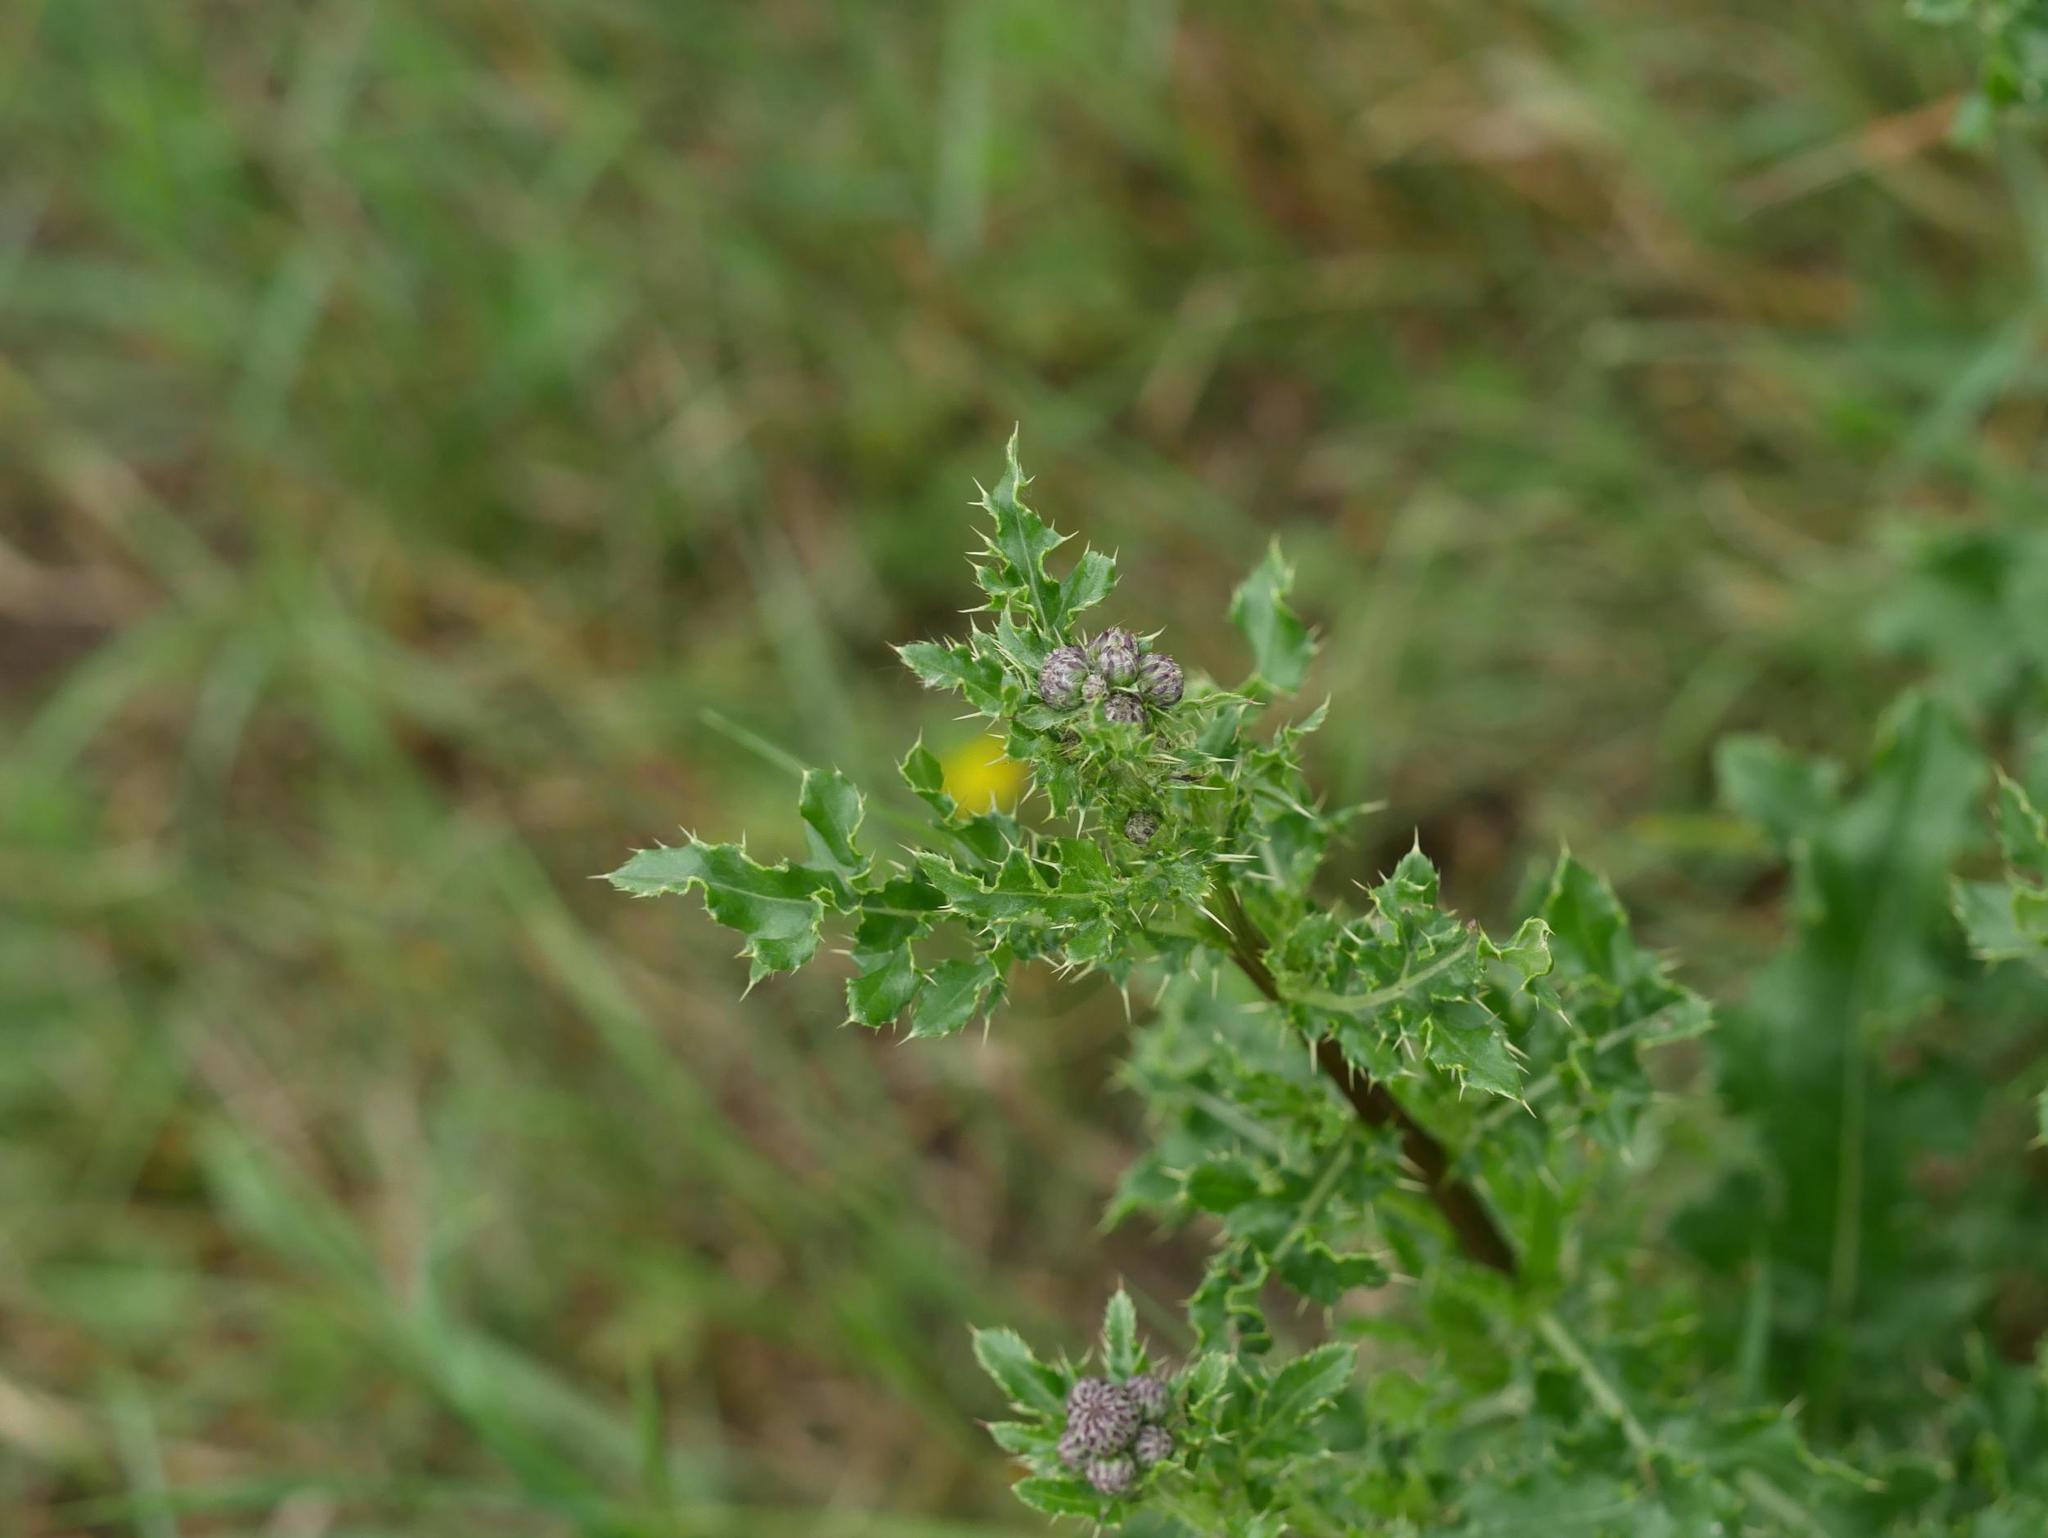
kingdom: Plantae
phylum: Tracheophyta
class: Magnoliopsida
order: Asterales
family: Asteraceae
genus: Cirsium
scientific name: Cirsium arvense
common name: Creeping thistle
